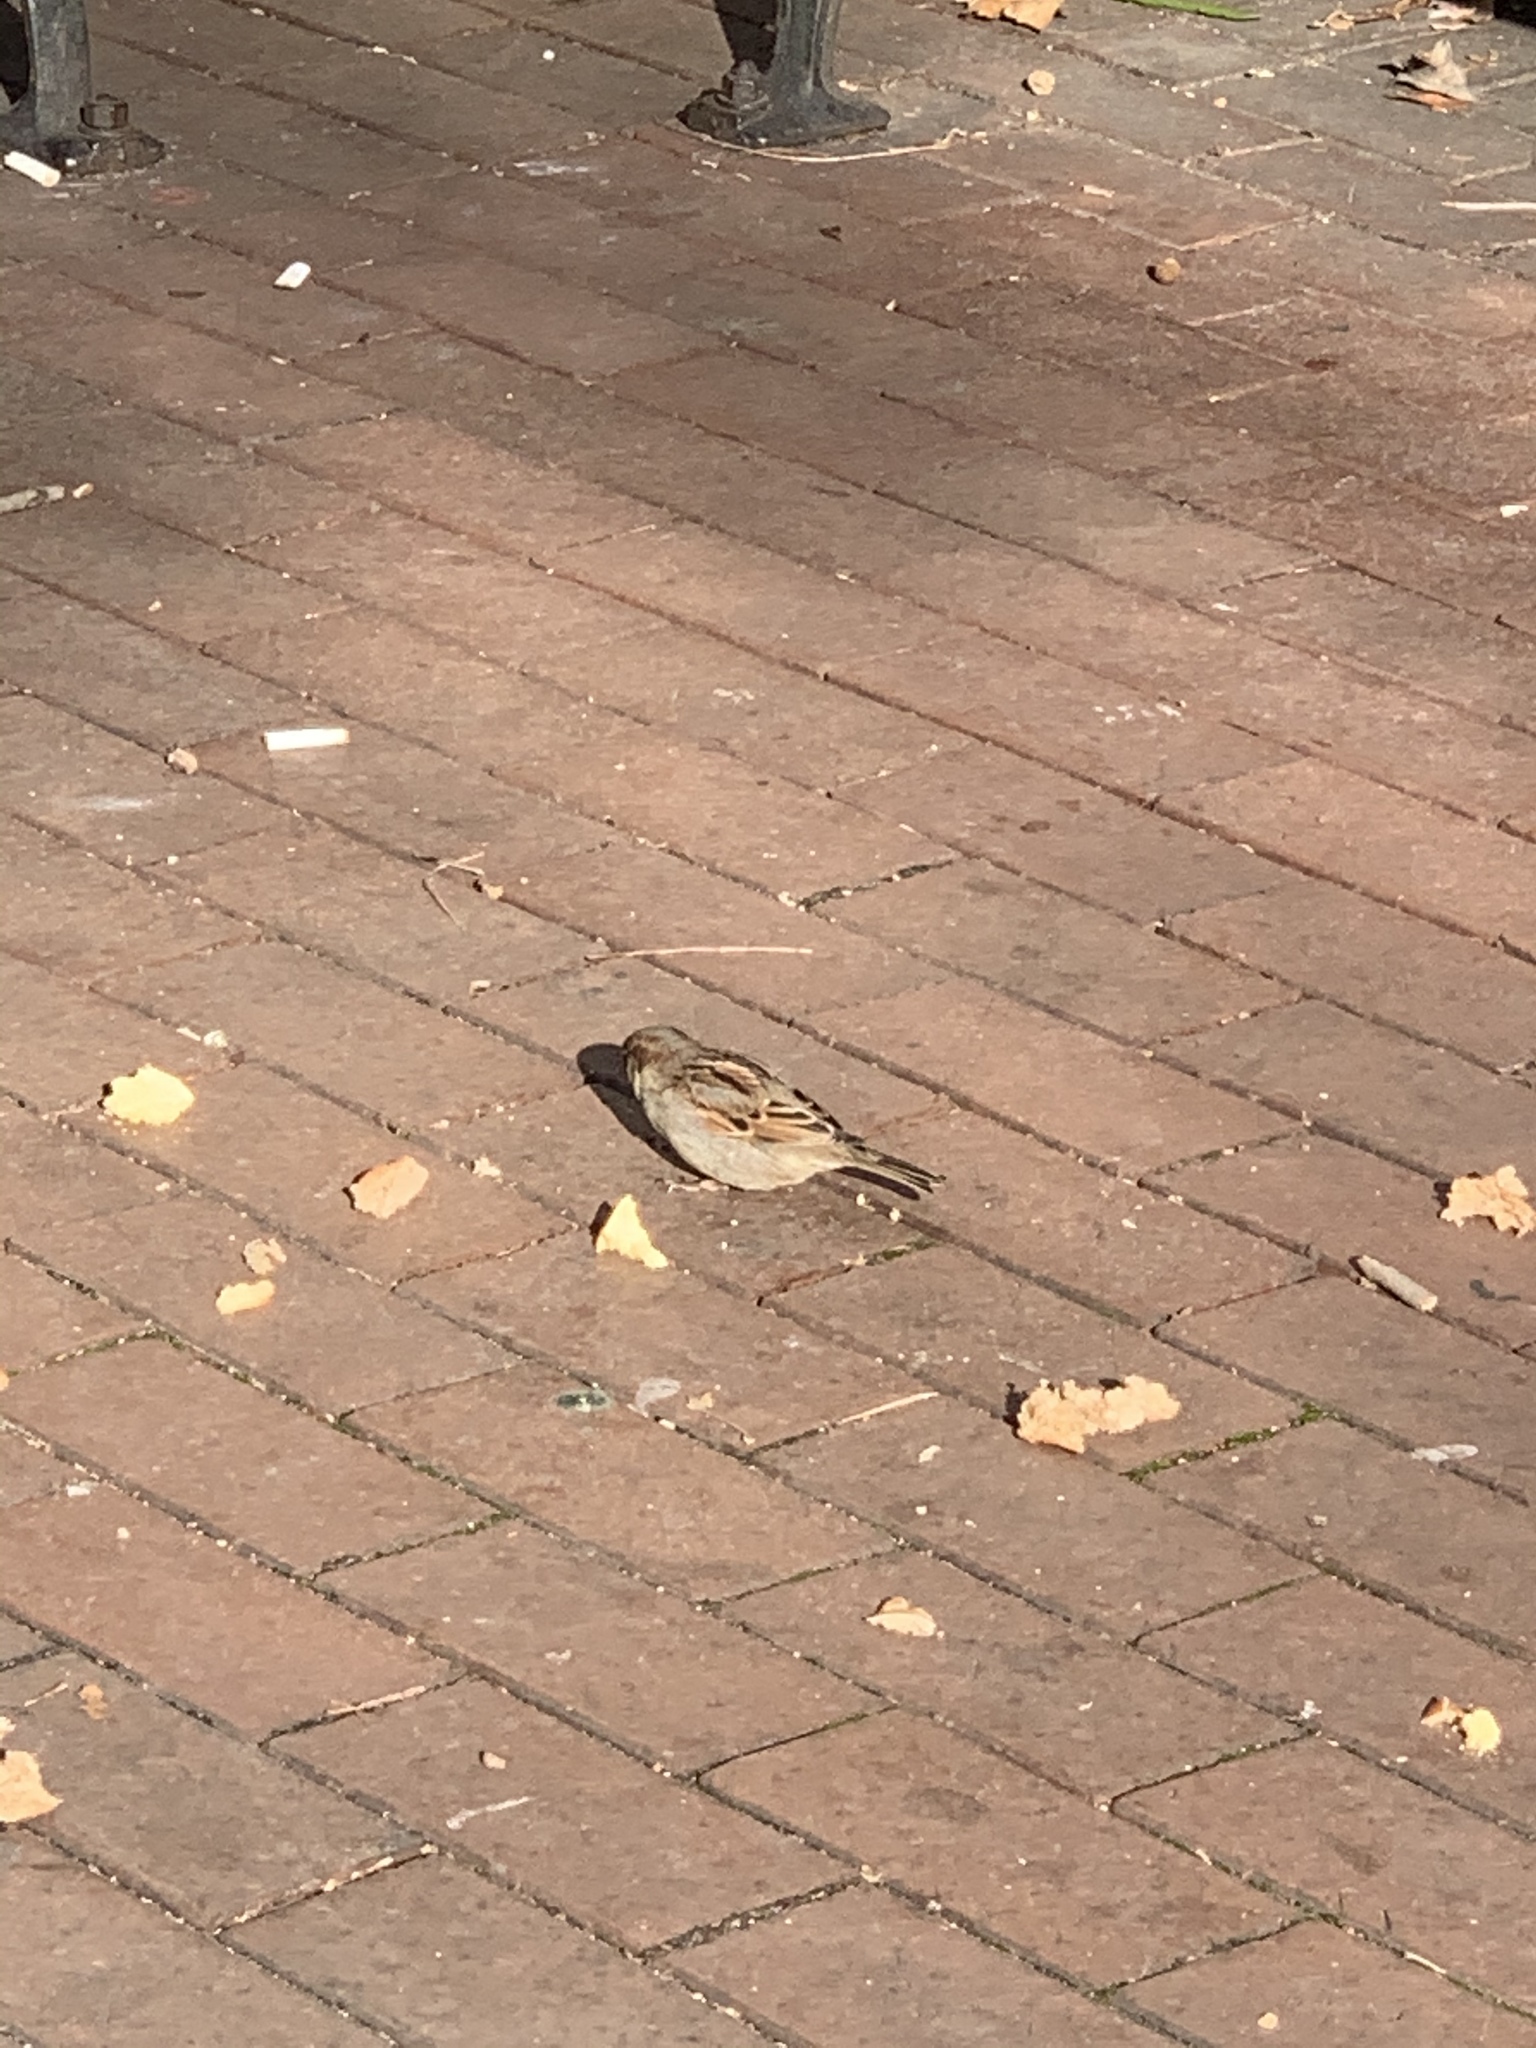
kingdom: Animalia
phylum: Chordata
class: Aves
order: Passeriformes
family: Passeridae
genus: Passer
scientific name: Passer domesticus
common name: House sparrow
